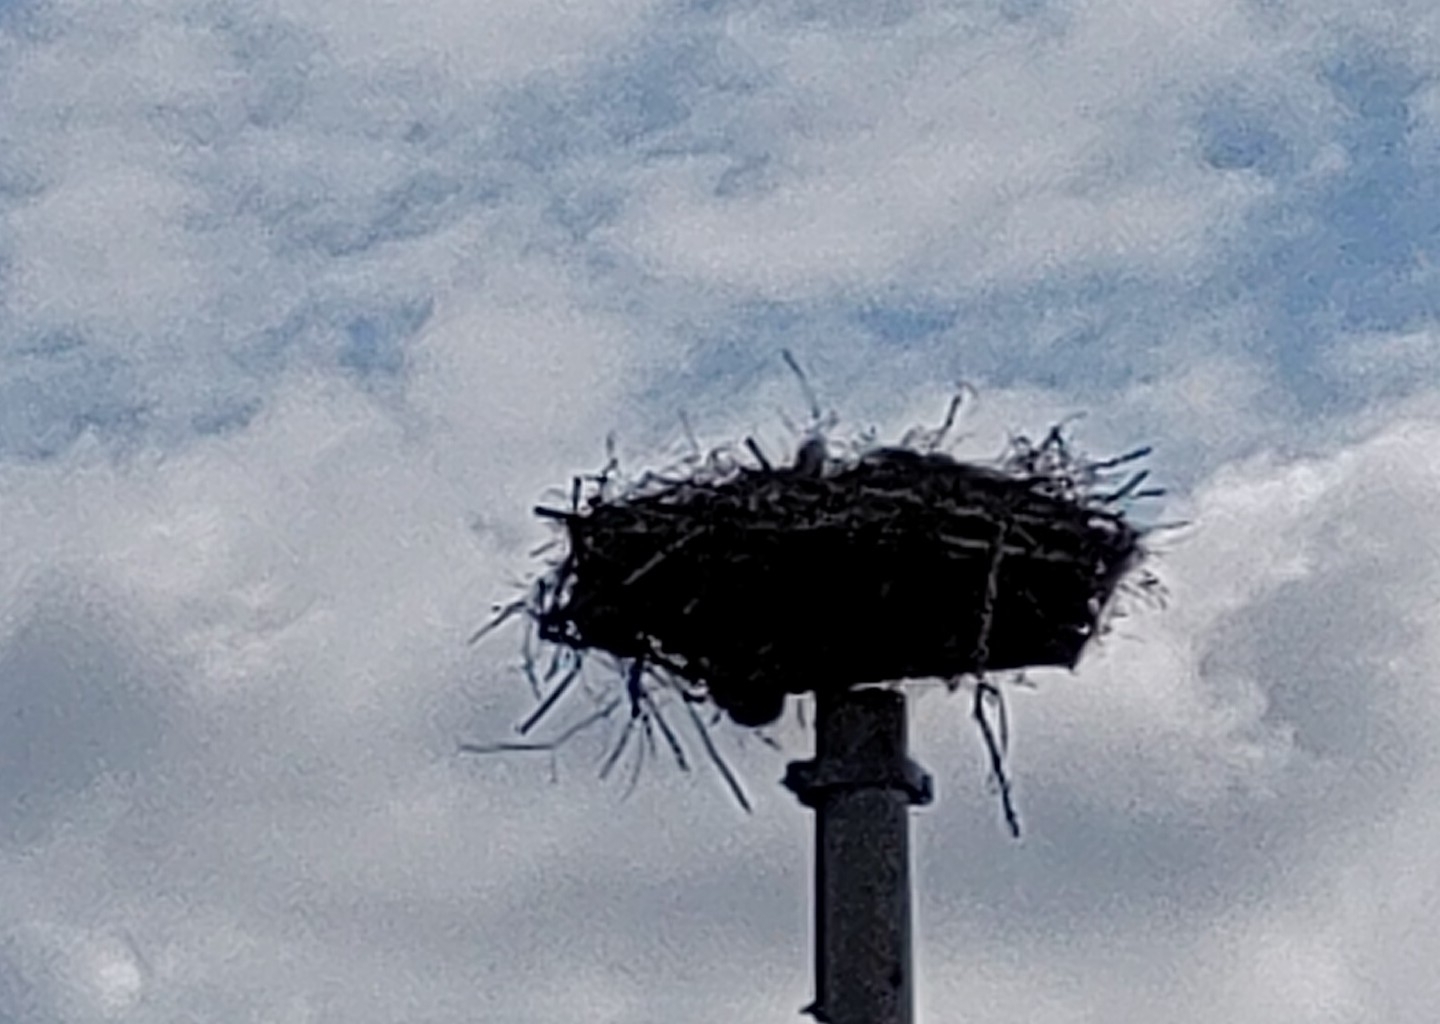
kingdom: Animalia
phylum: Chordata
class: Aves
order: Ciconiiformes
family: Ciconiidae
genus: Ciconia
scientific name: Ciconia ciconia
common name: White stork
